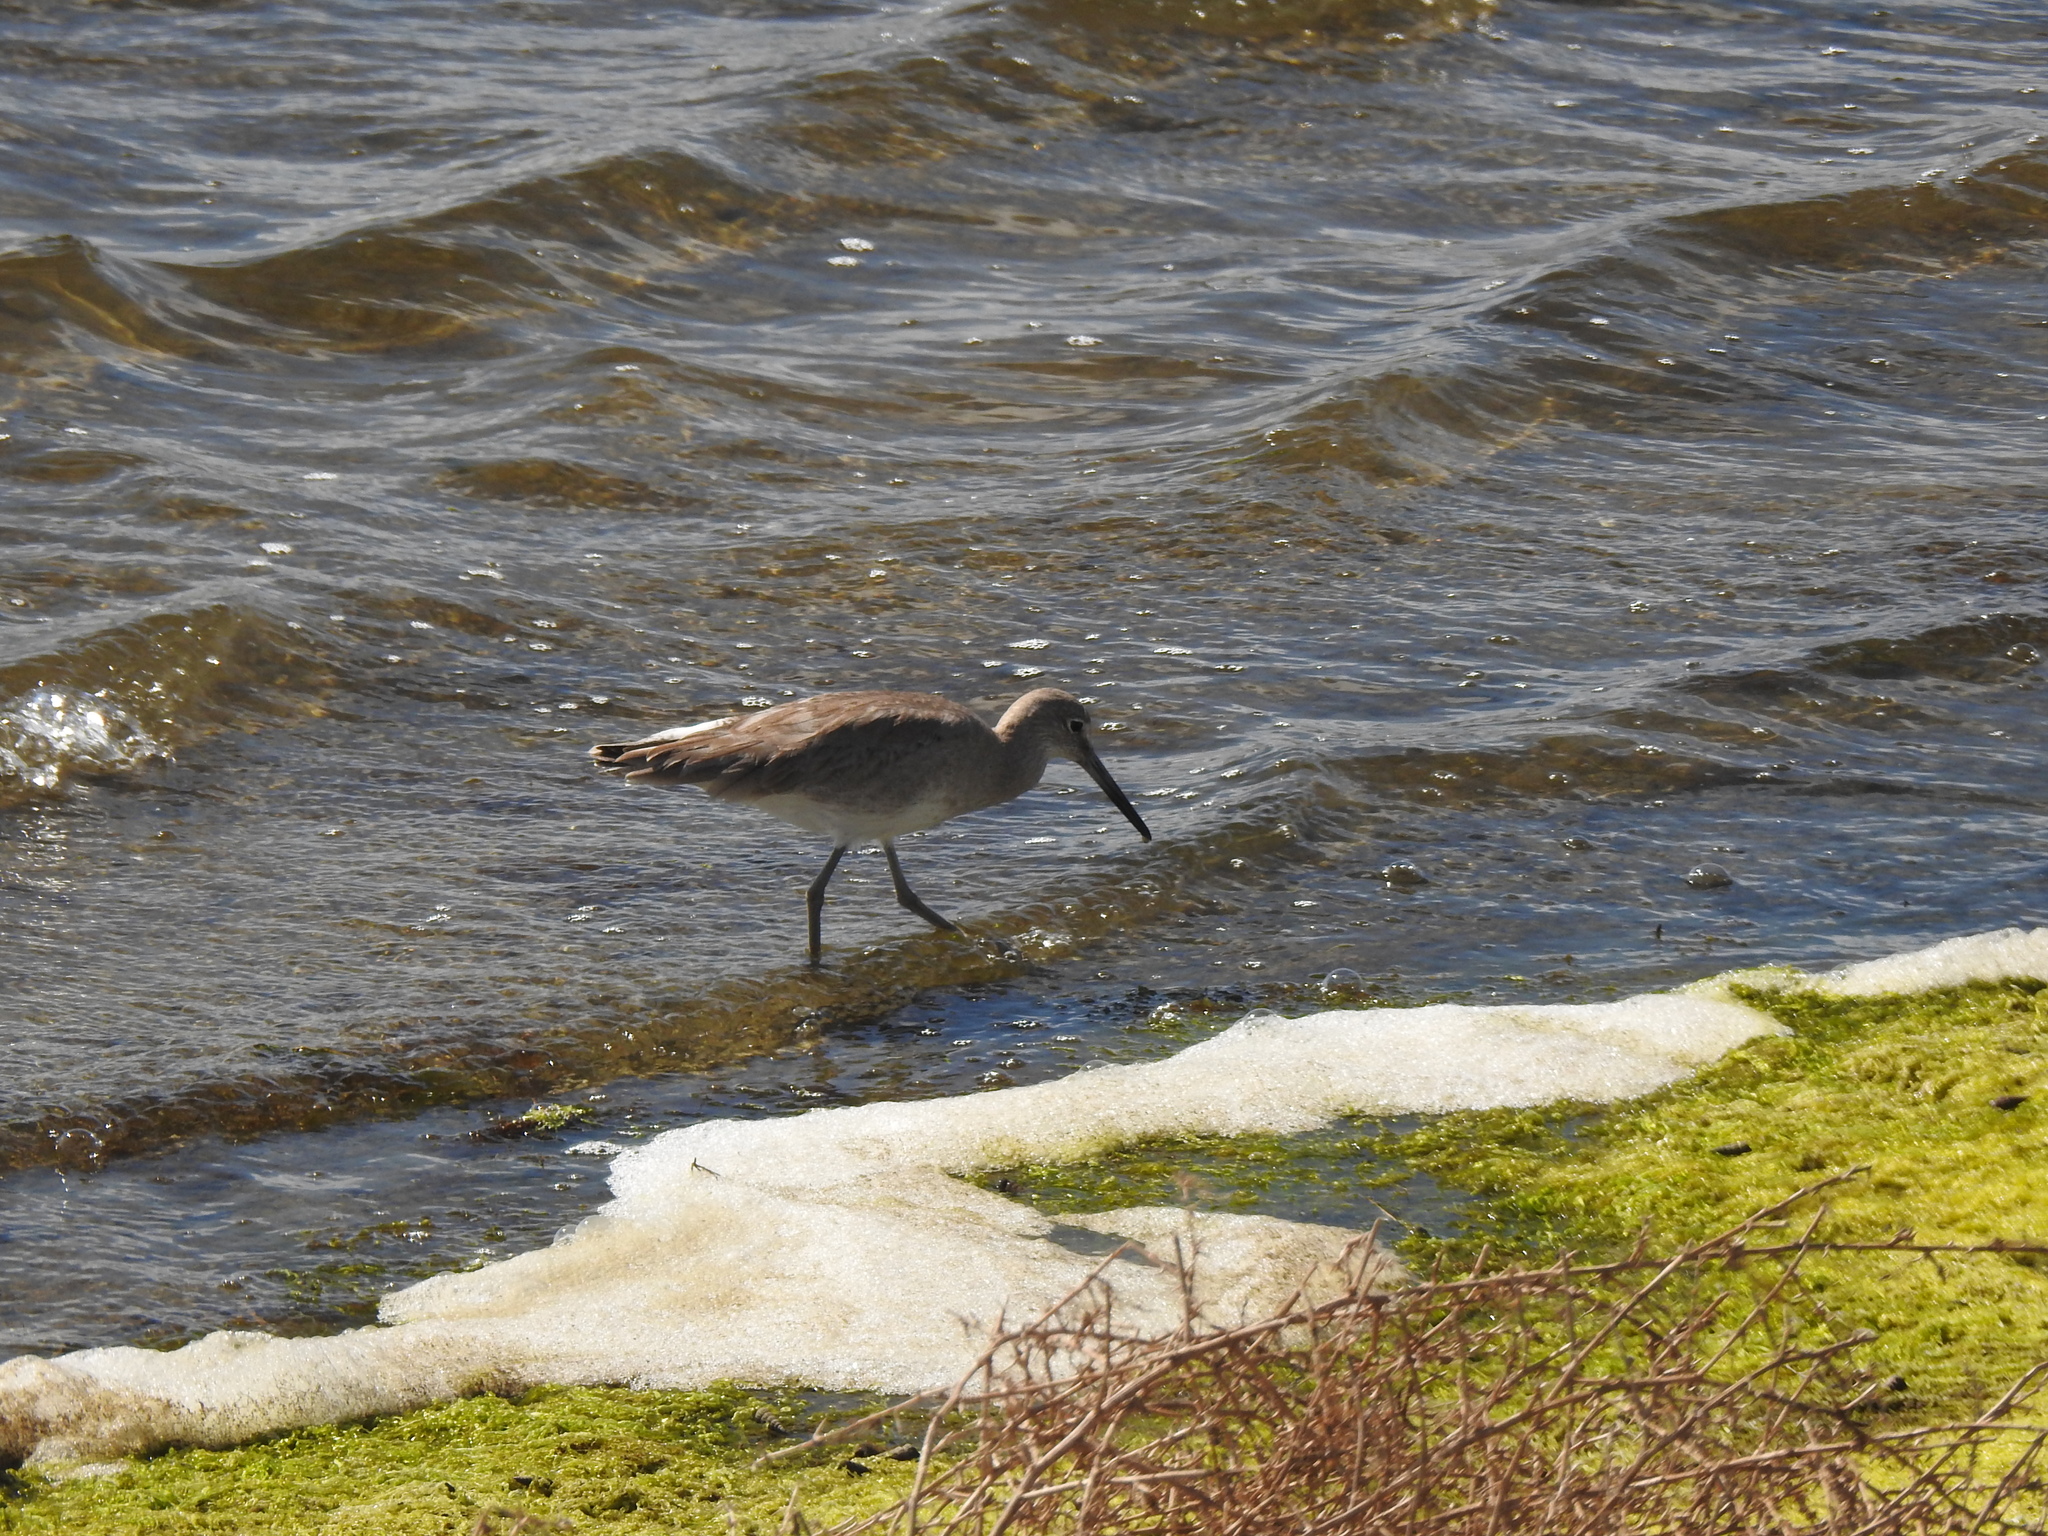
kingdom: Animalia
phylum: Chordata
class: Aves
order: Charadriiformes
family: Scolopacidae
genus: Tringa
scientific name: Tringa semipalmata
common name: Willet
